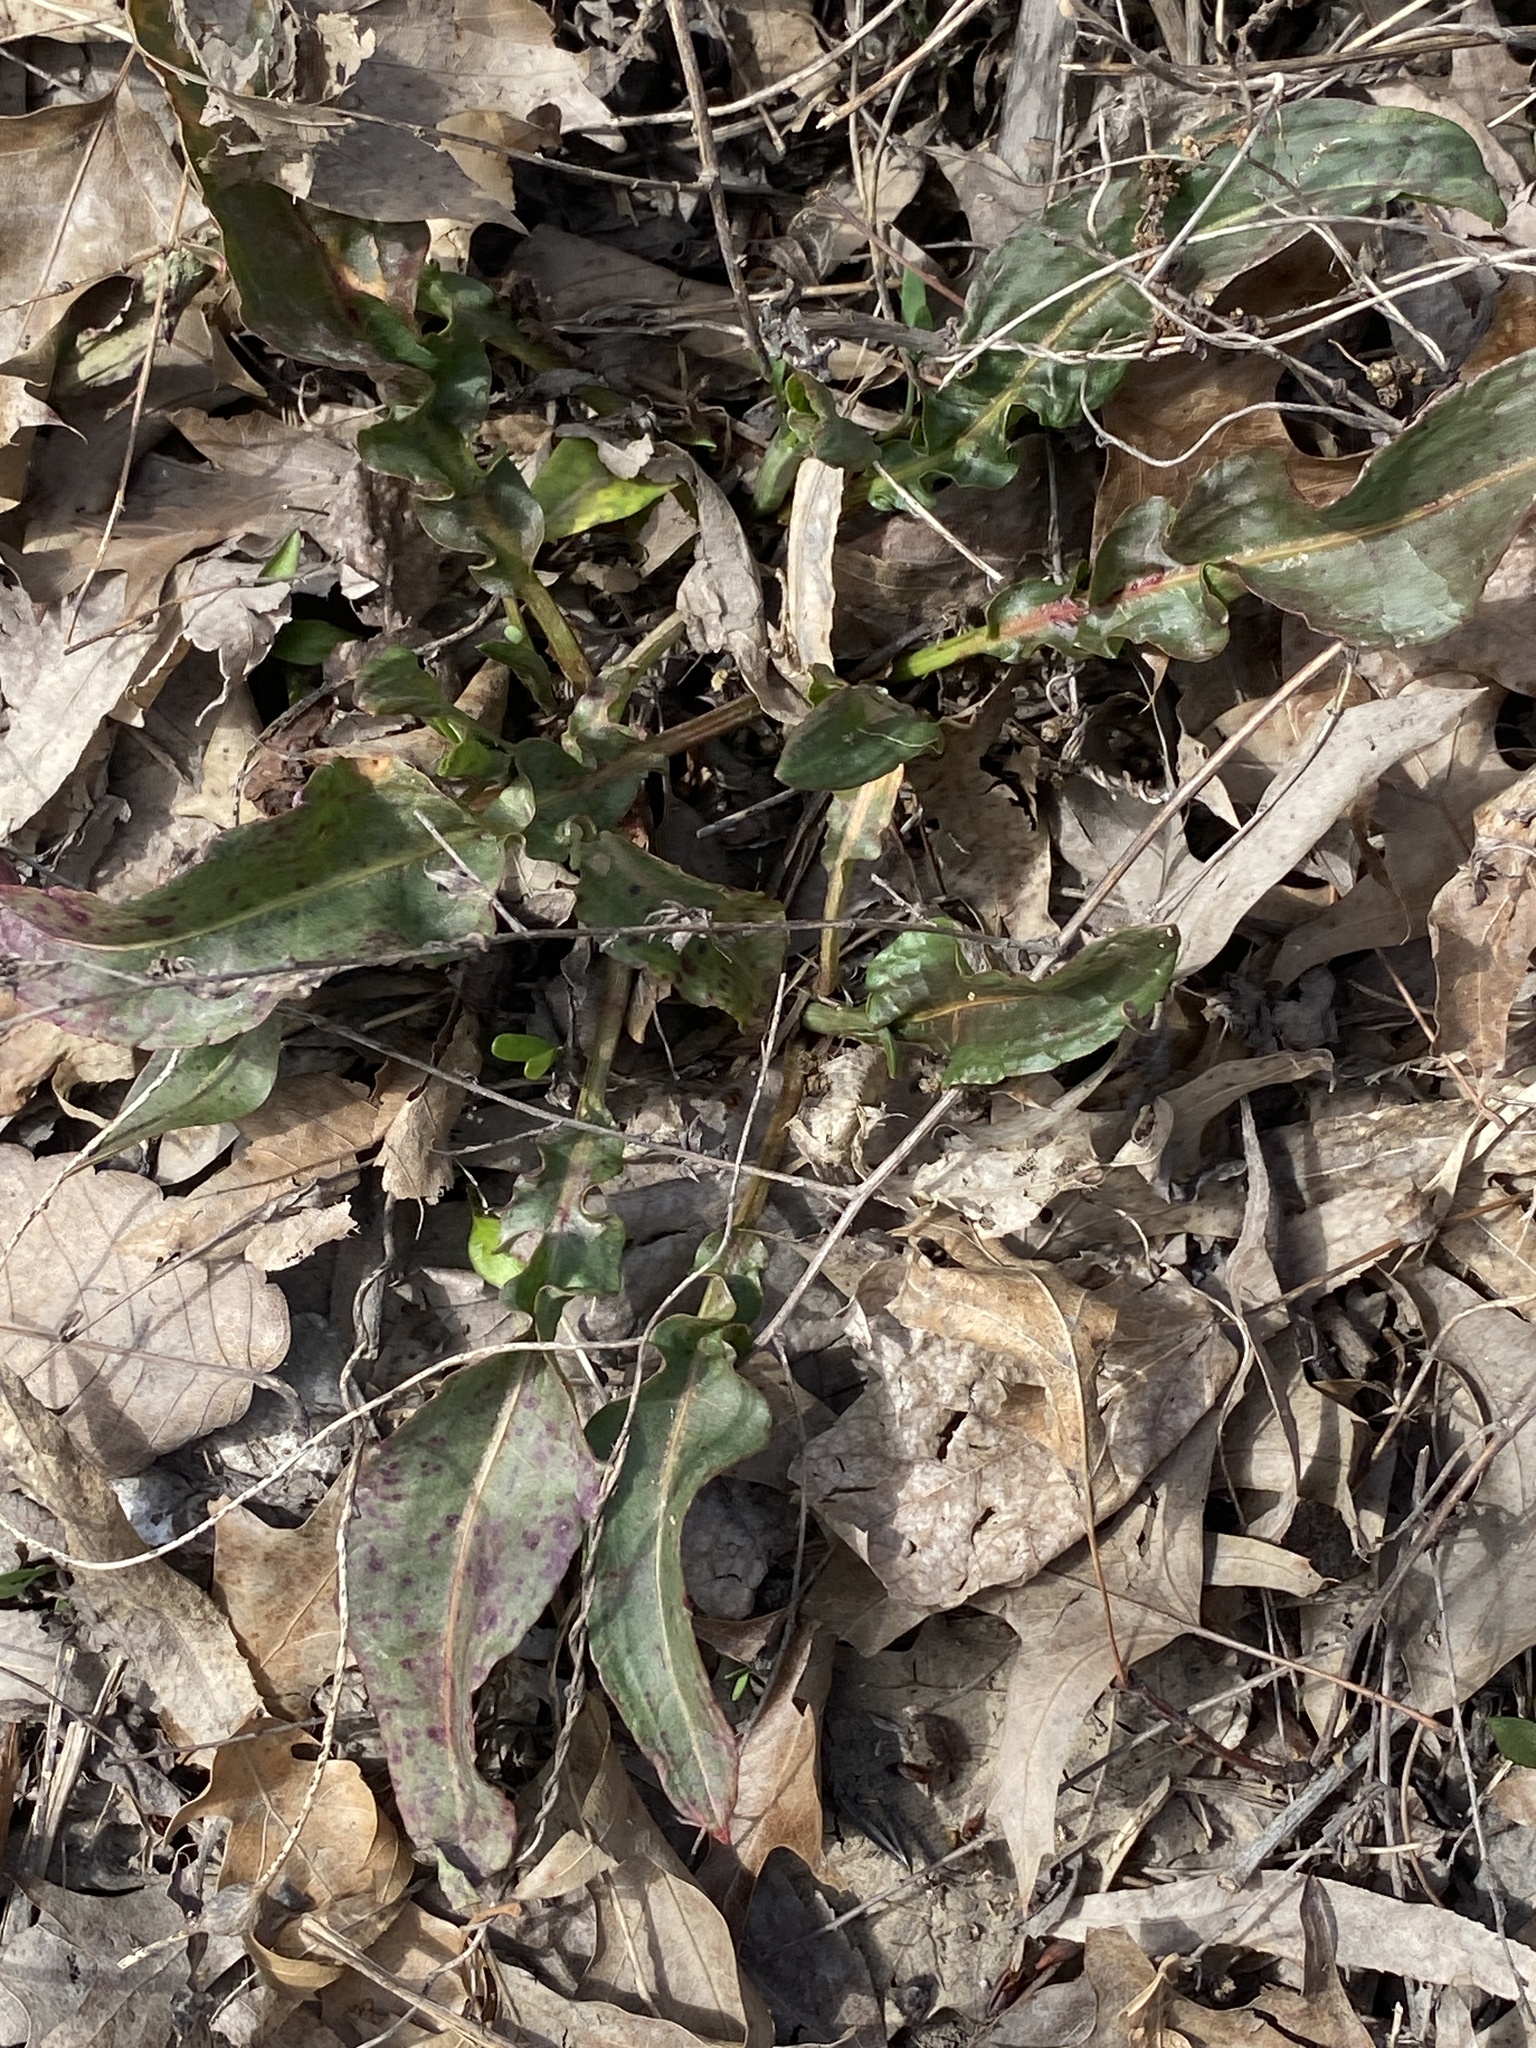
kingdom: Plantae
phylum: Tracheophyta
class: Magnoliopsida
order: Caryophyllales
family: Polygonaceae
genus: Rumex
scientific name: Rumex crispus
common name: Curled dock
